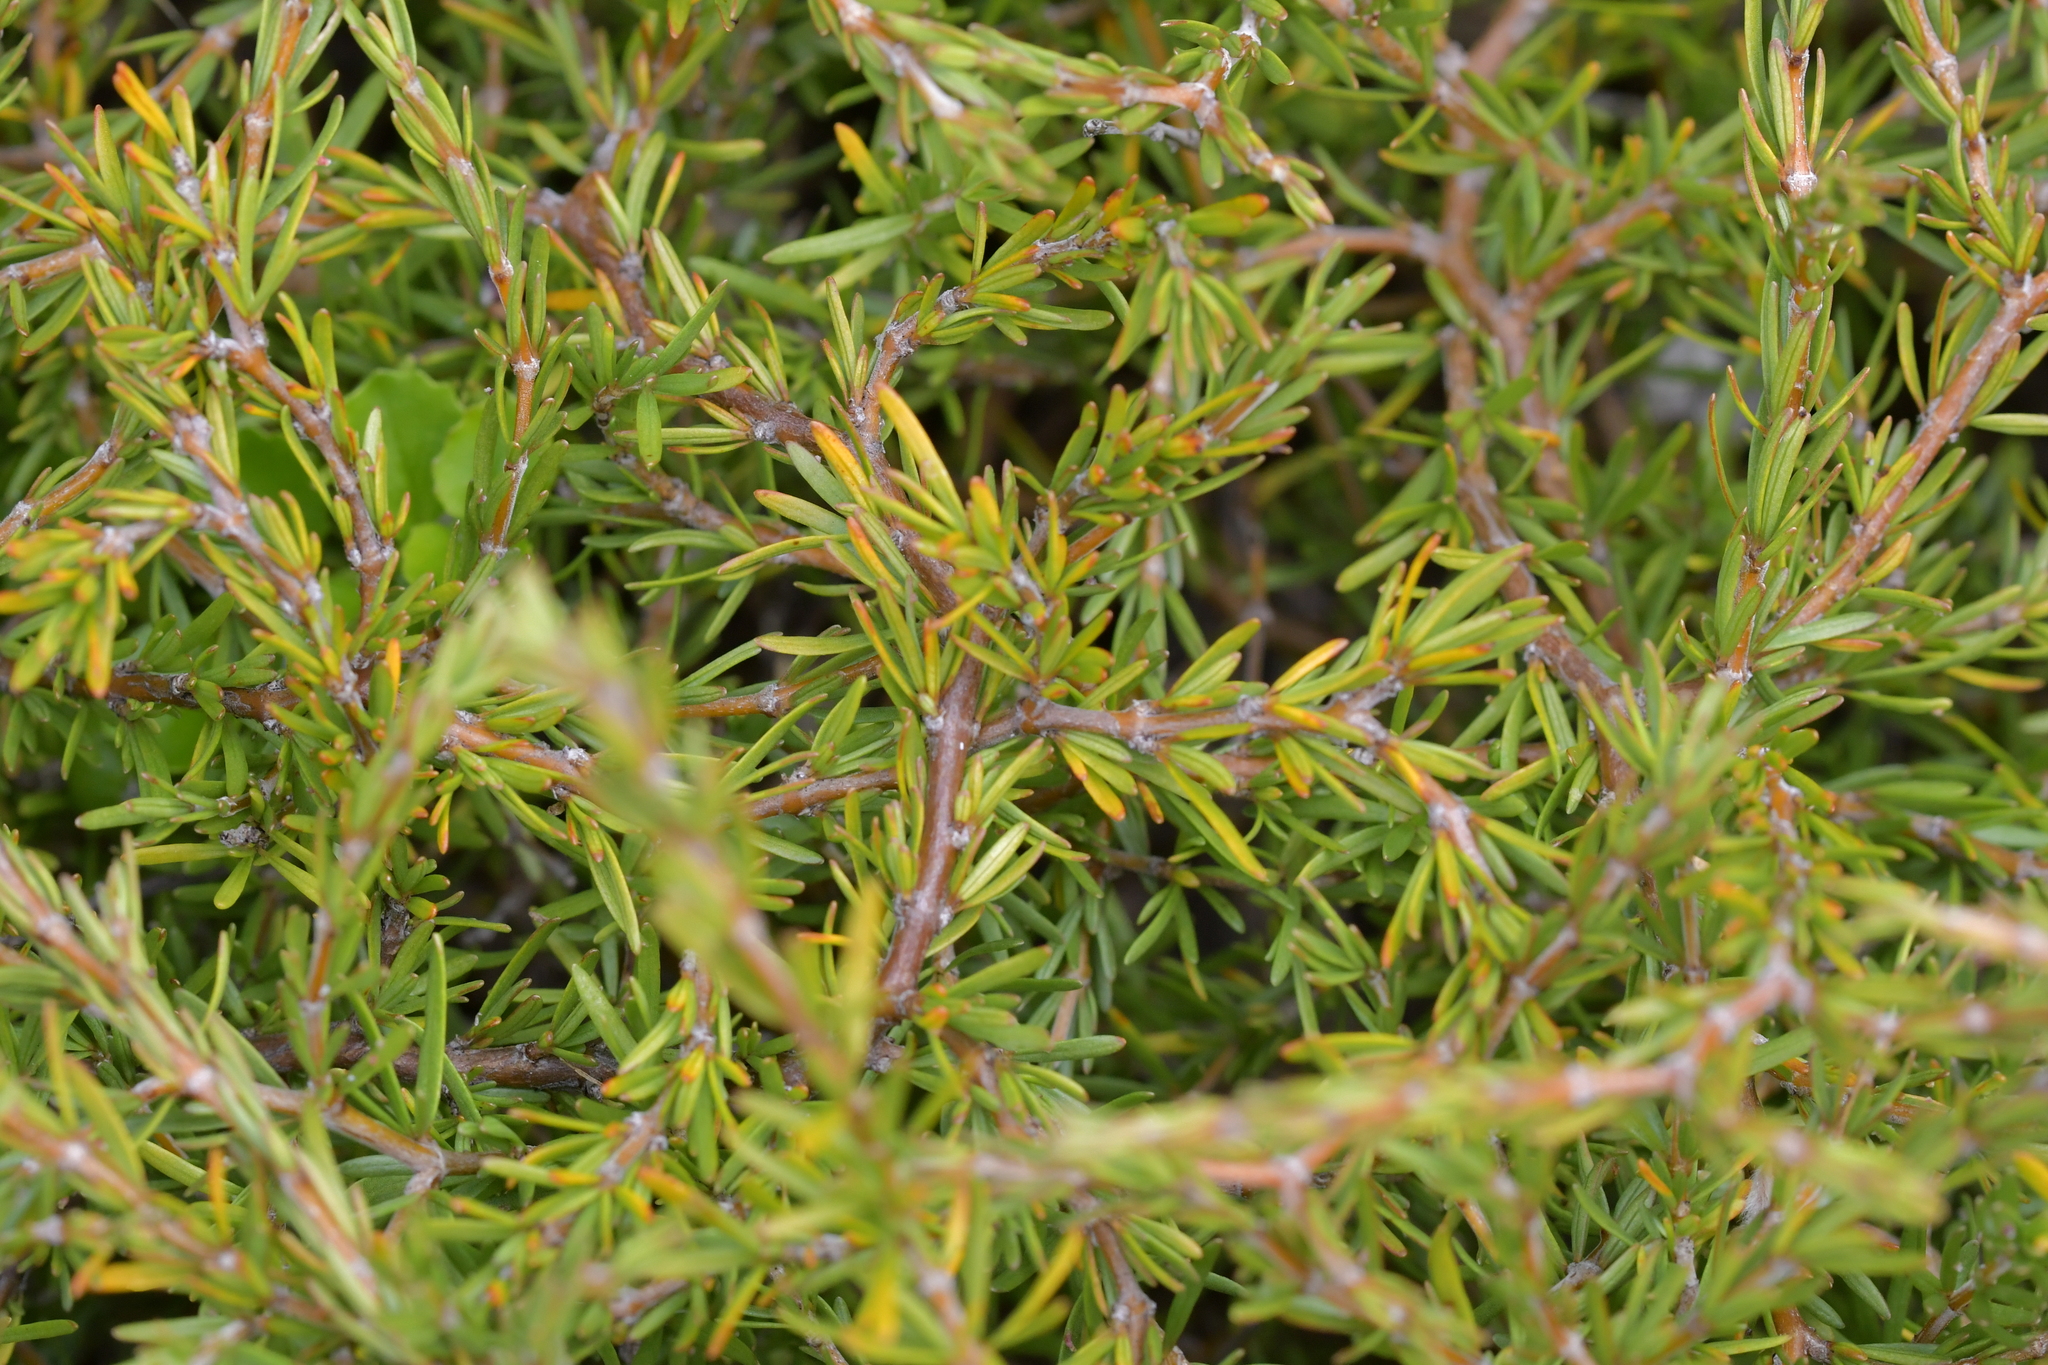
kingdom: Plantae
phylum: Tracheophyta
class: Magnoliopsida
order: Gentianales
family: Rubiaceae
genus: Coprosma
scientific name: Coprosma acerosa
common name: Sand coprosma
